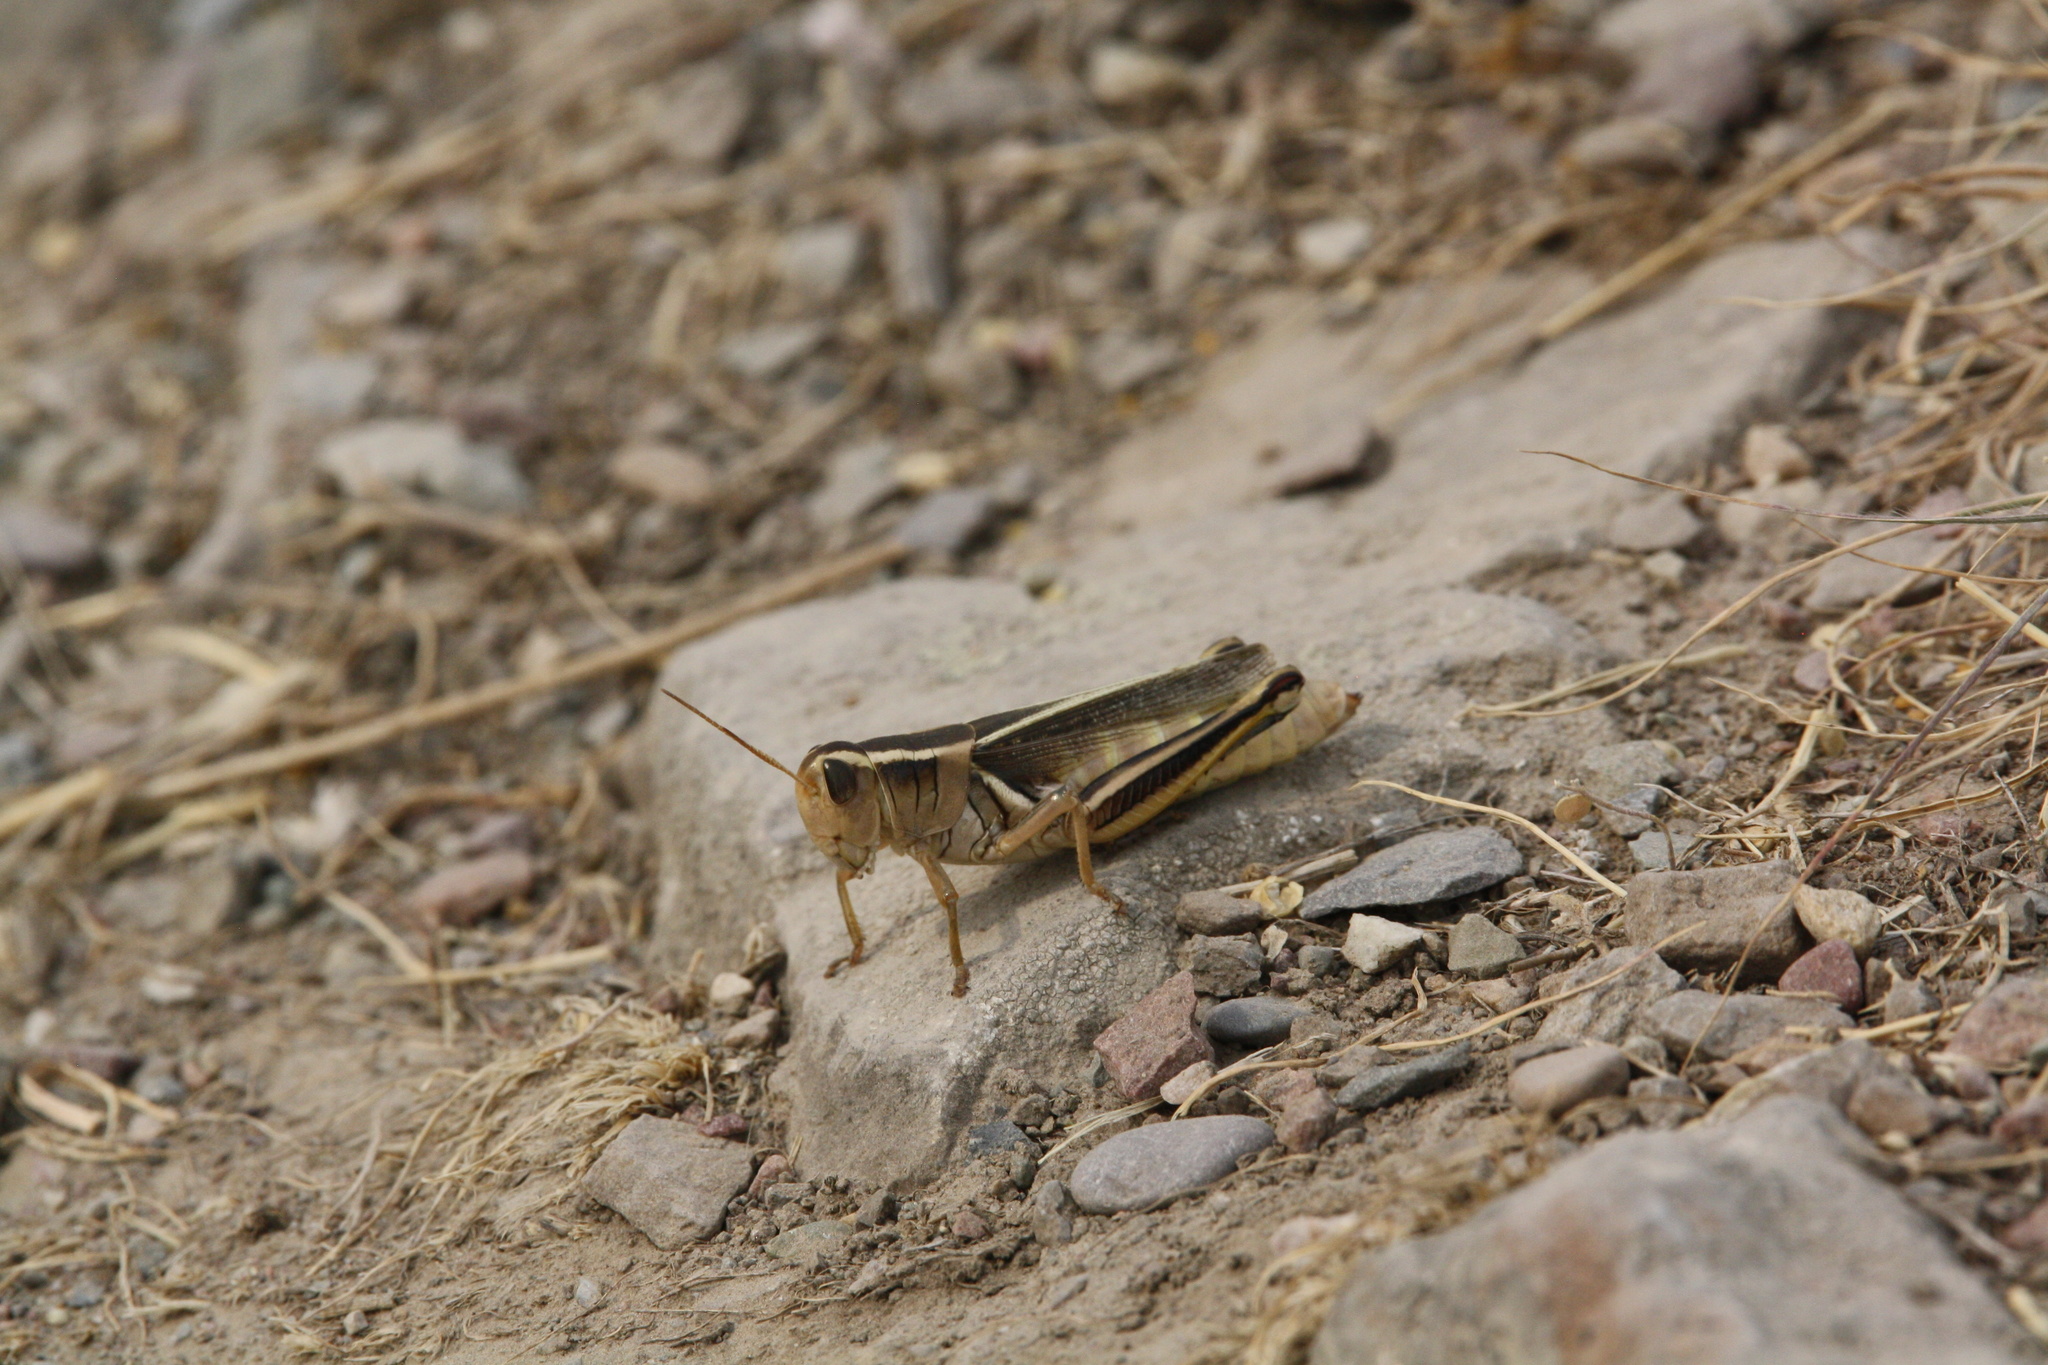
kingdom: Animalia
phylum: Arthropoda
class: Insecta
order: Orthoptera
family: Acrididae
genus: Melanoplus
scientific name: Melanoplus bivittatus
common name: Two-striped grasshopper
